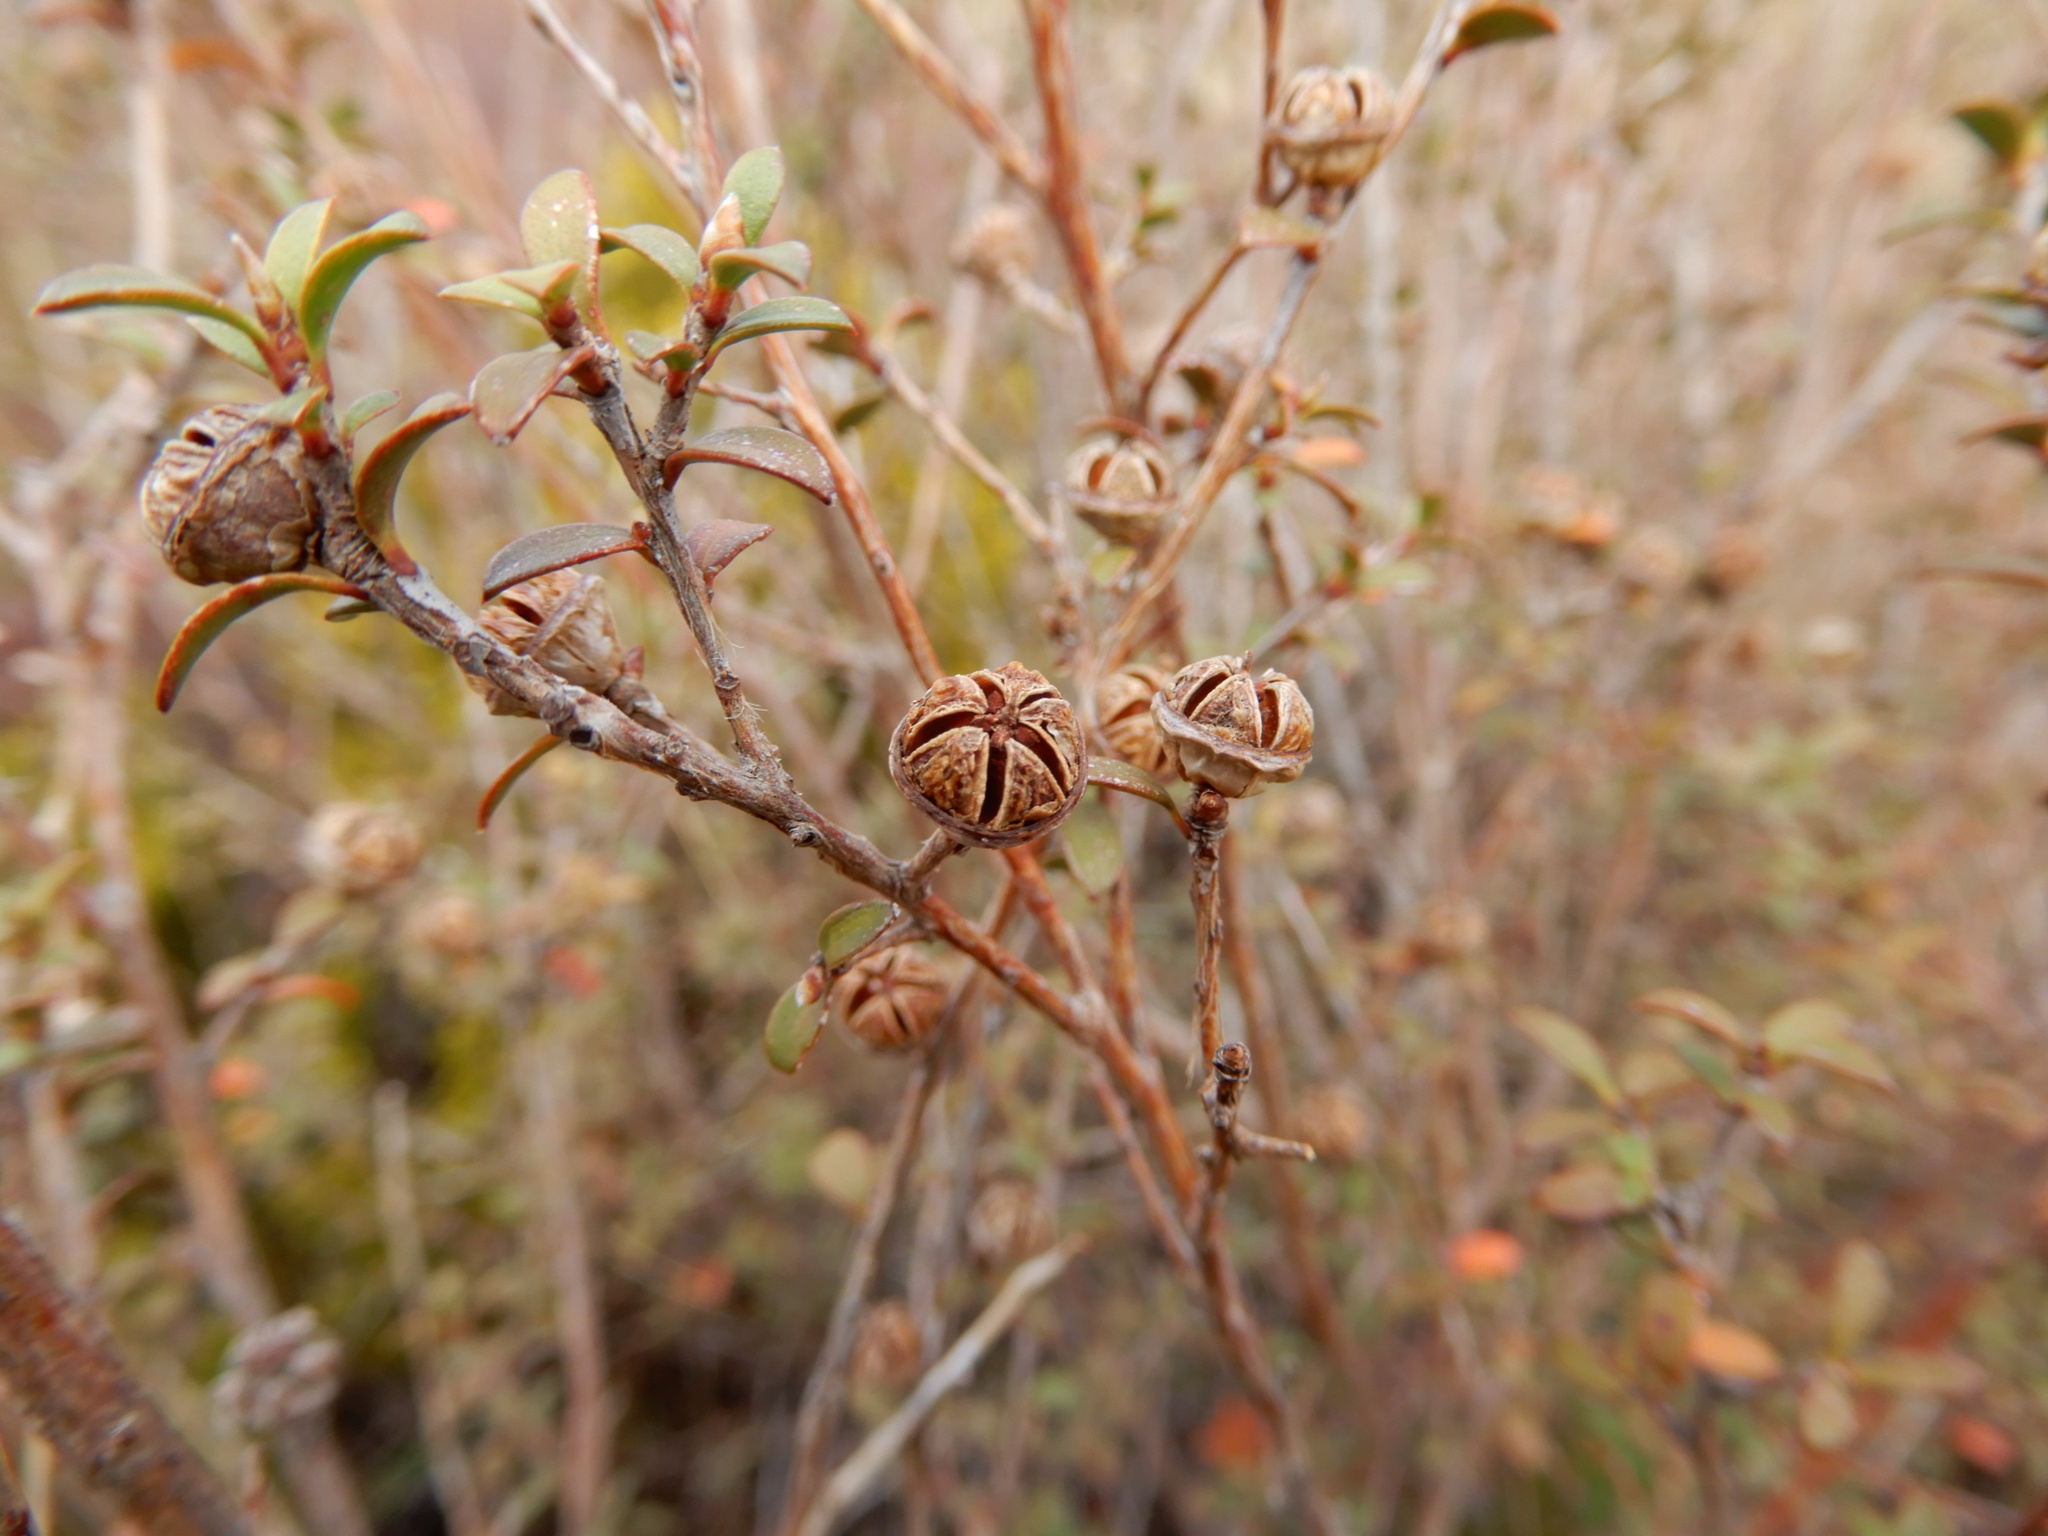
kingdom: Plantae
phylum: Tracheophyta
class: Magnoliopsida
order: Myrtales
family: Myrtaceae
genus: Leptospermum
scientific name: Leptospermum scoparium
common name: Broom tea-tree
